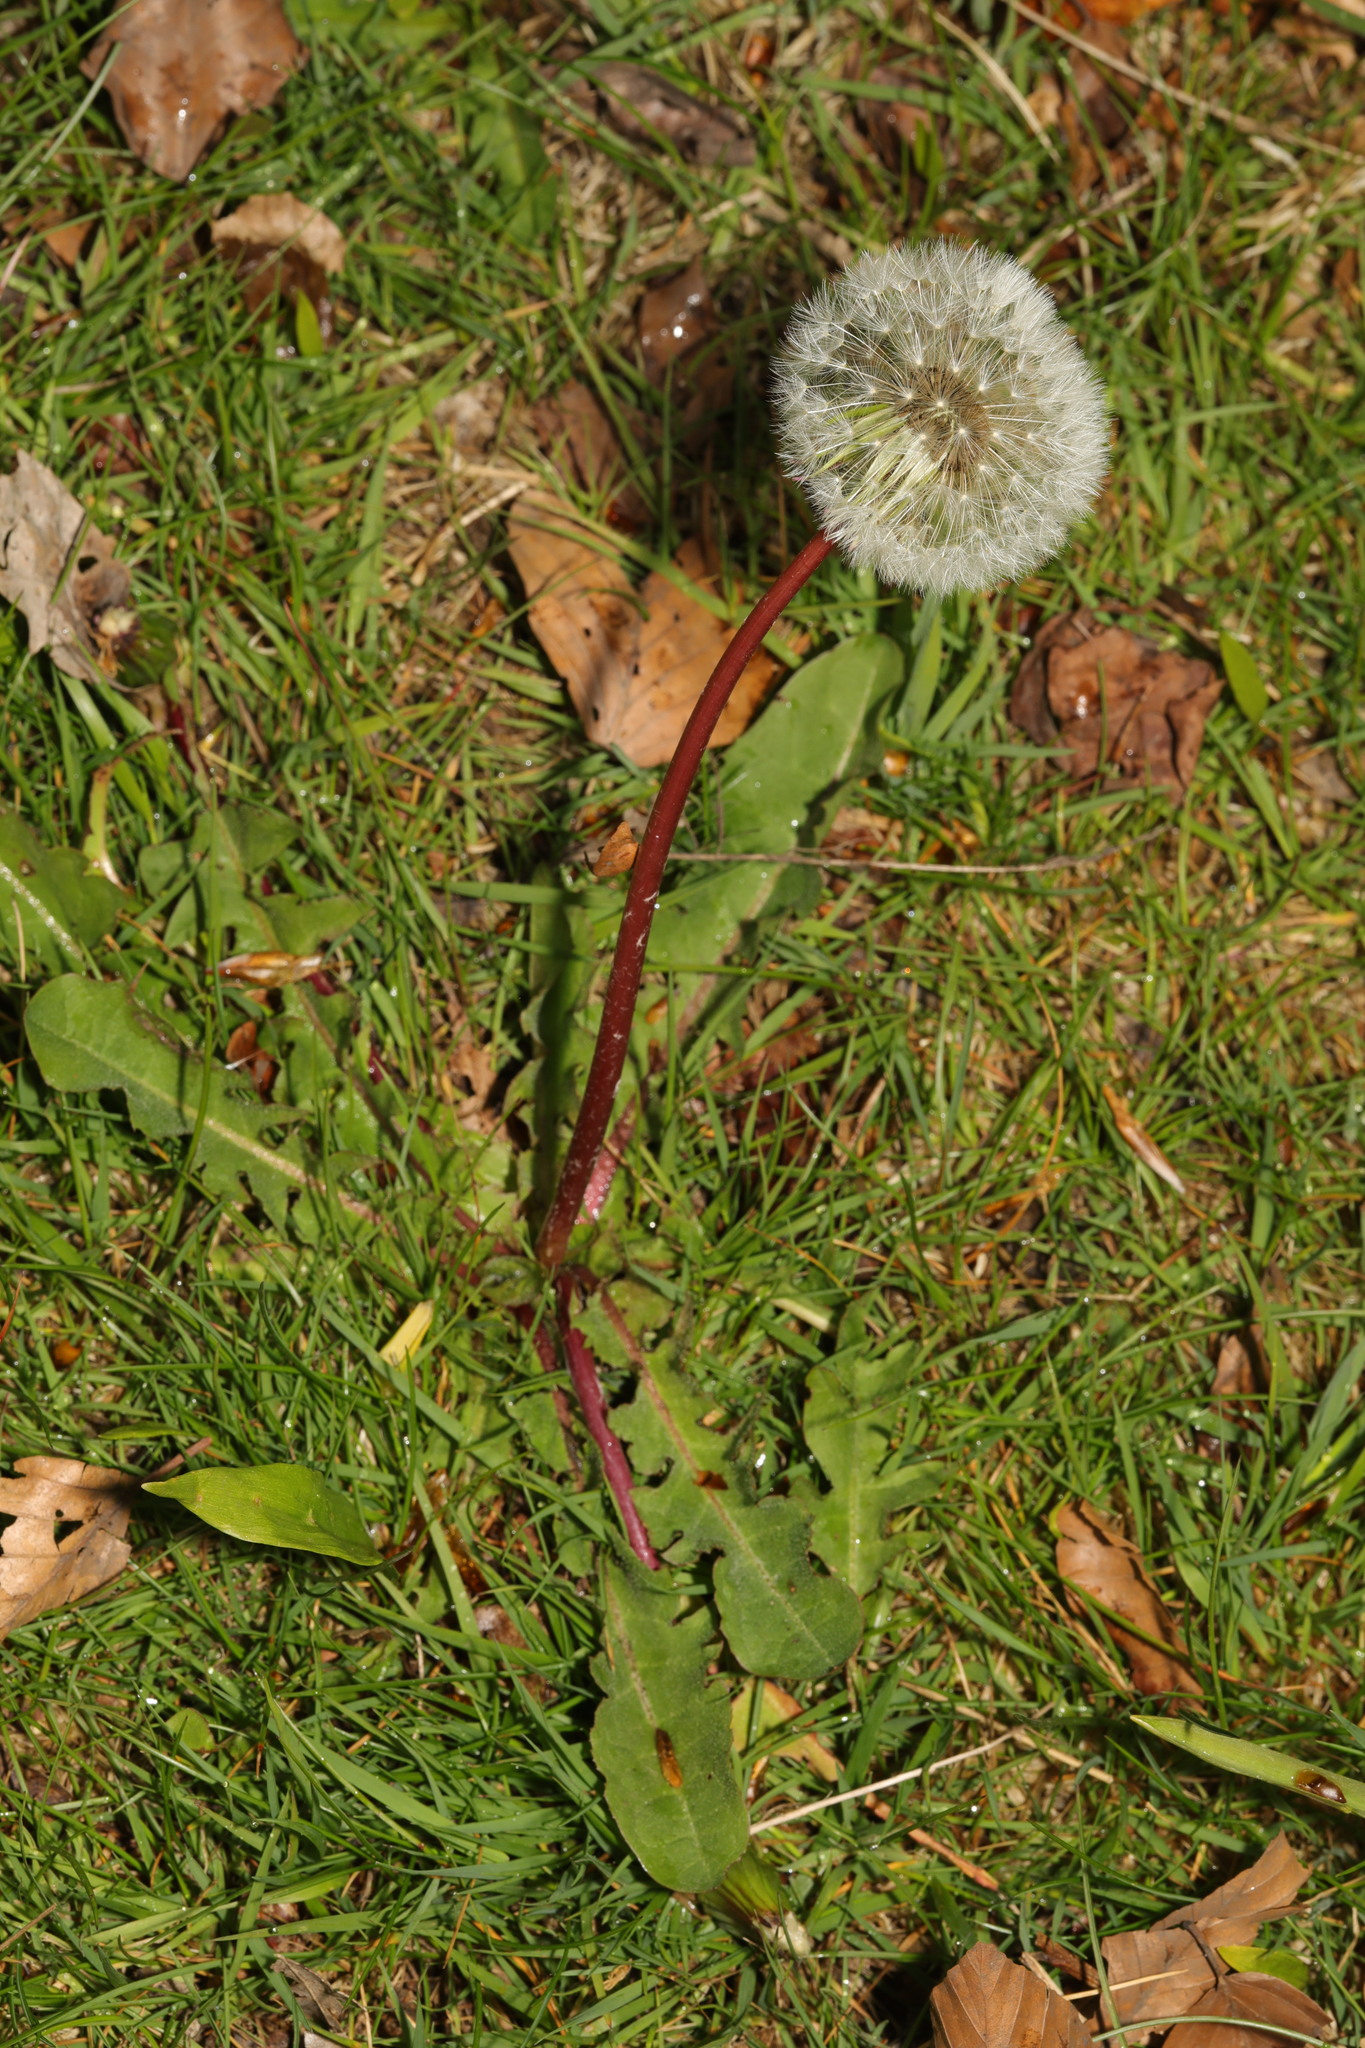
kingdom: Plantae
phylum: Tracheophyta
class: Magnoliopsida
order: Asterales
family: Asteraceae
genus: Taraxacum
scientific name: Taraxacum officinale
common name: Common dandelion
